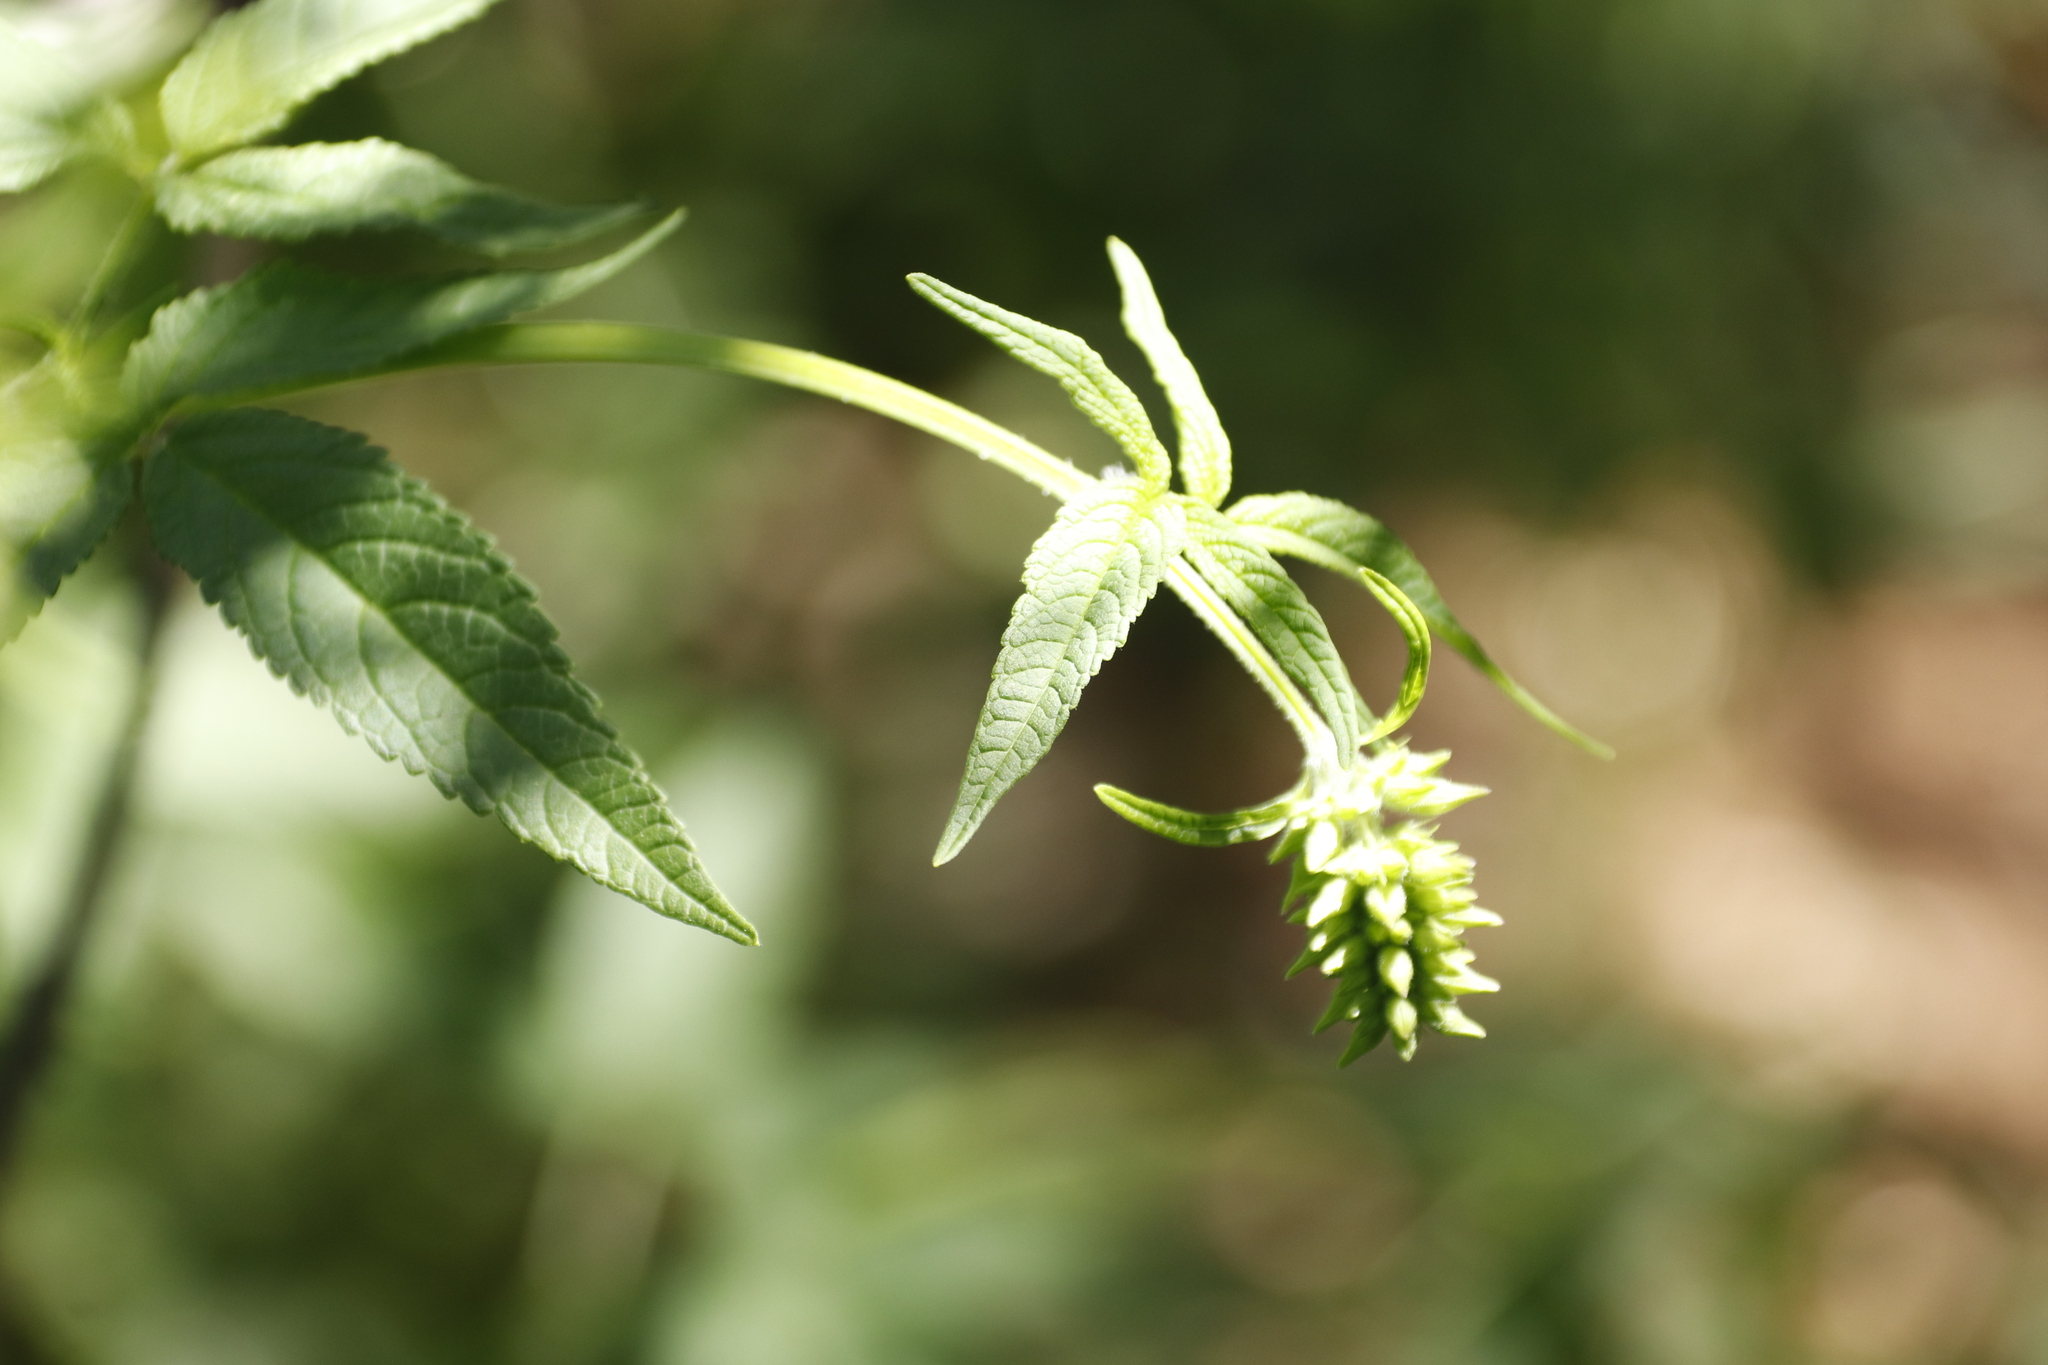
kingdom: Plantae
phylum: Tracheophyta
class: Magnoliopsida
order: Lamiales
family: Lamiaceae
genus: Cedronella
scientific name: Cedronella canariensis
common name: Canary islands balm
